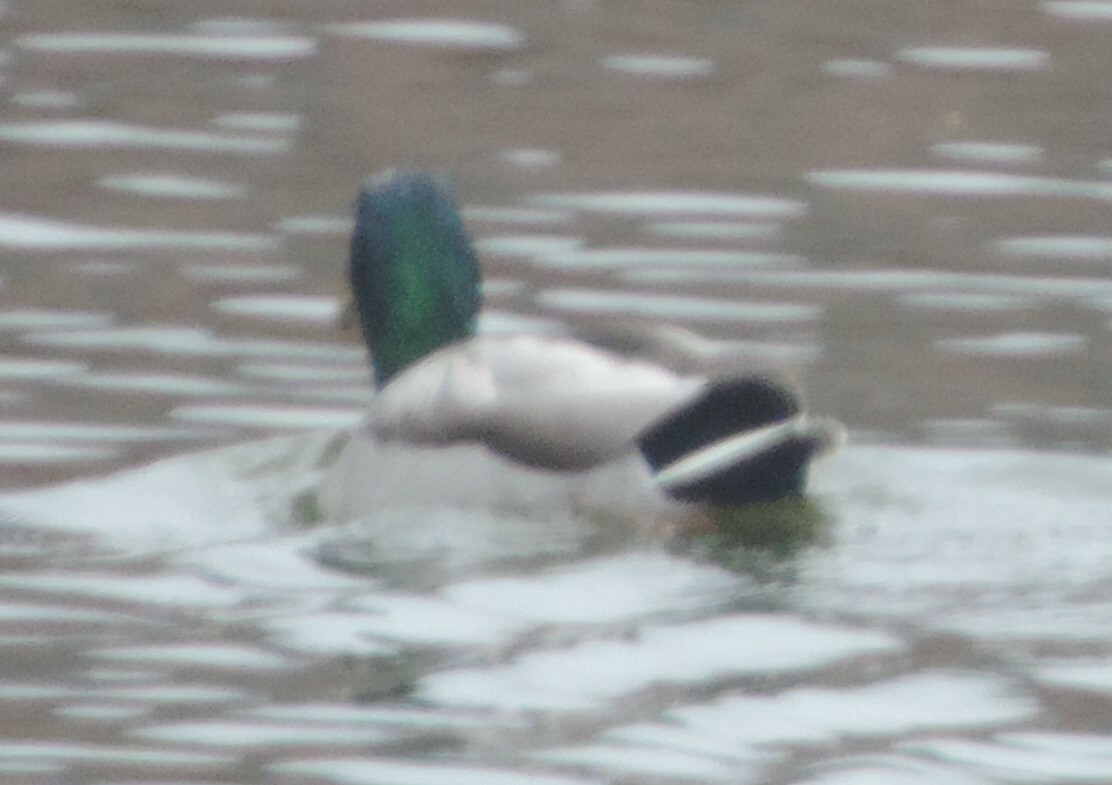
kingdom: Animalia
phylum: Chordata
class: Aves
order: Anseriformes
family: Anatidae
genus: Anas
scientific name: Anas platyrhynchos
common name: Mallard
